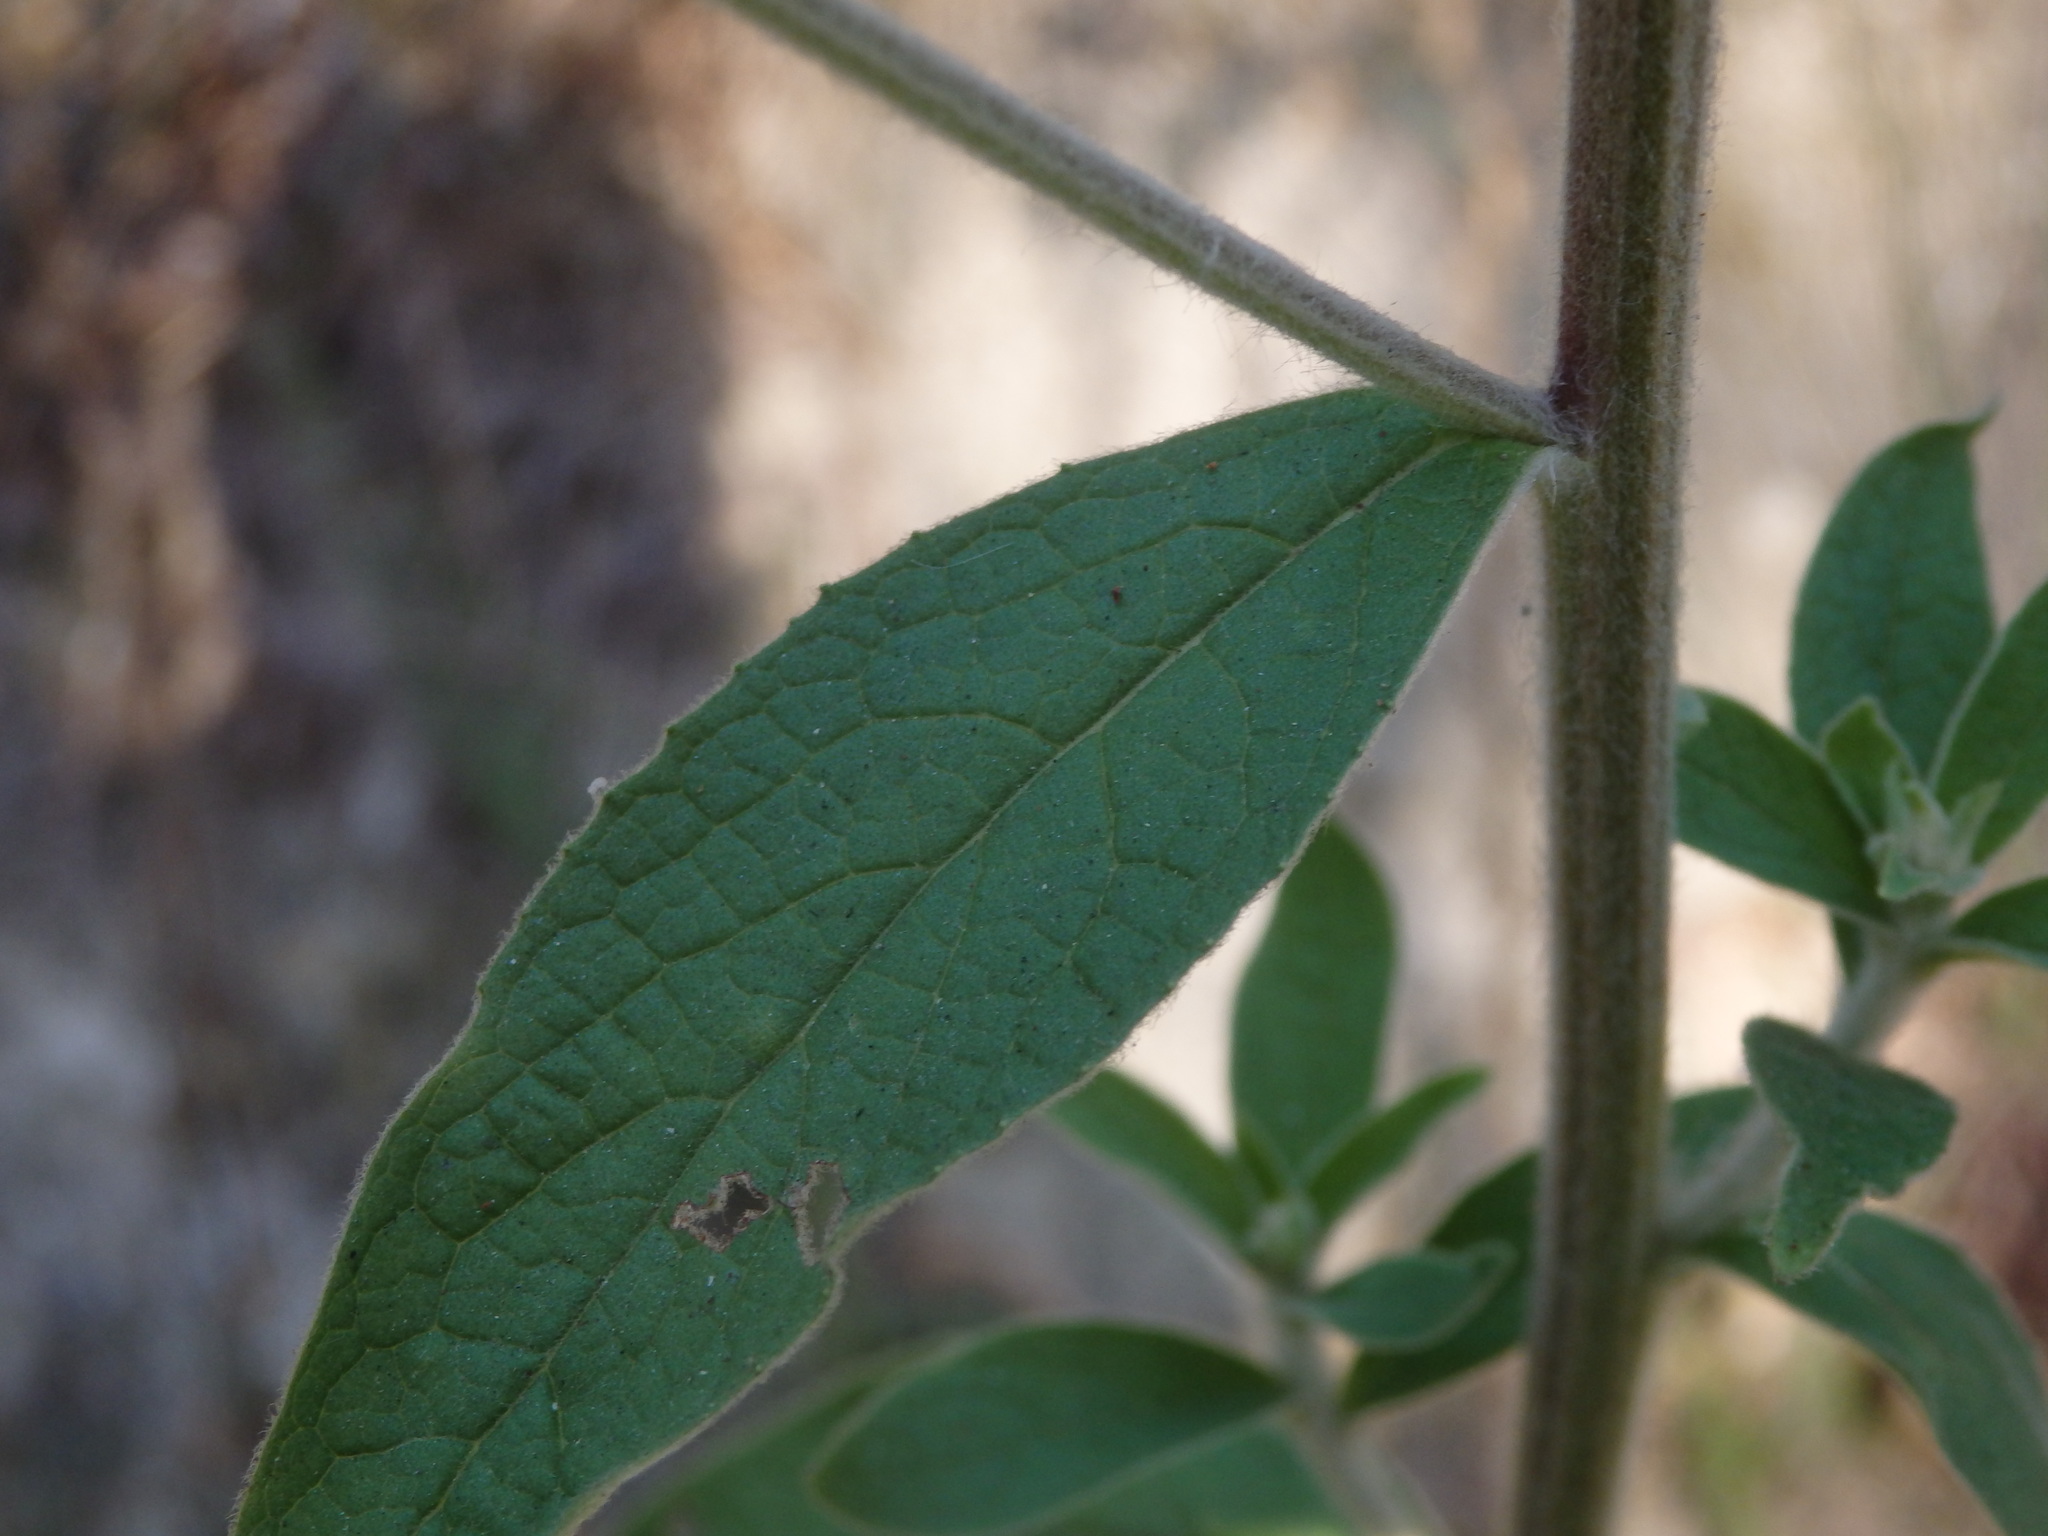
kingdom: Plantae
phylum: Tracheophyta
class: Magnoliopsida
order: Asterales
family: Asteraceae
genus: Pentanema
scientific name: Pentanema squarrosum
